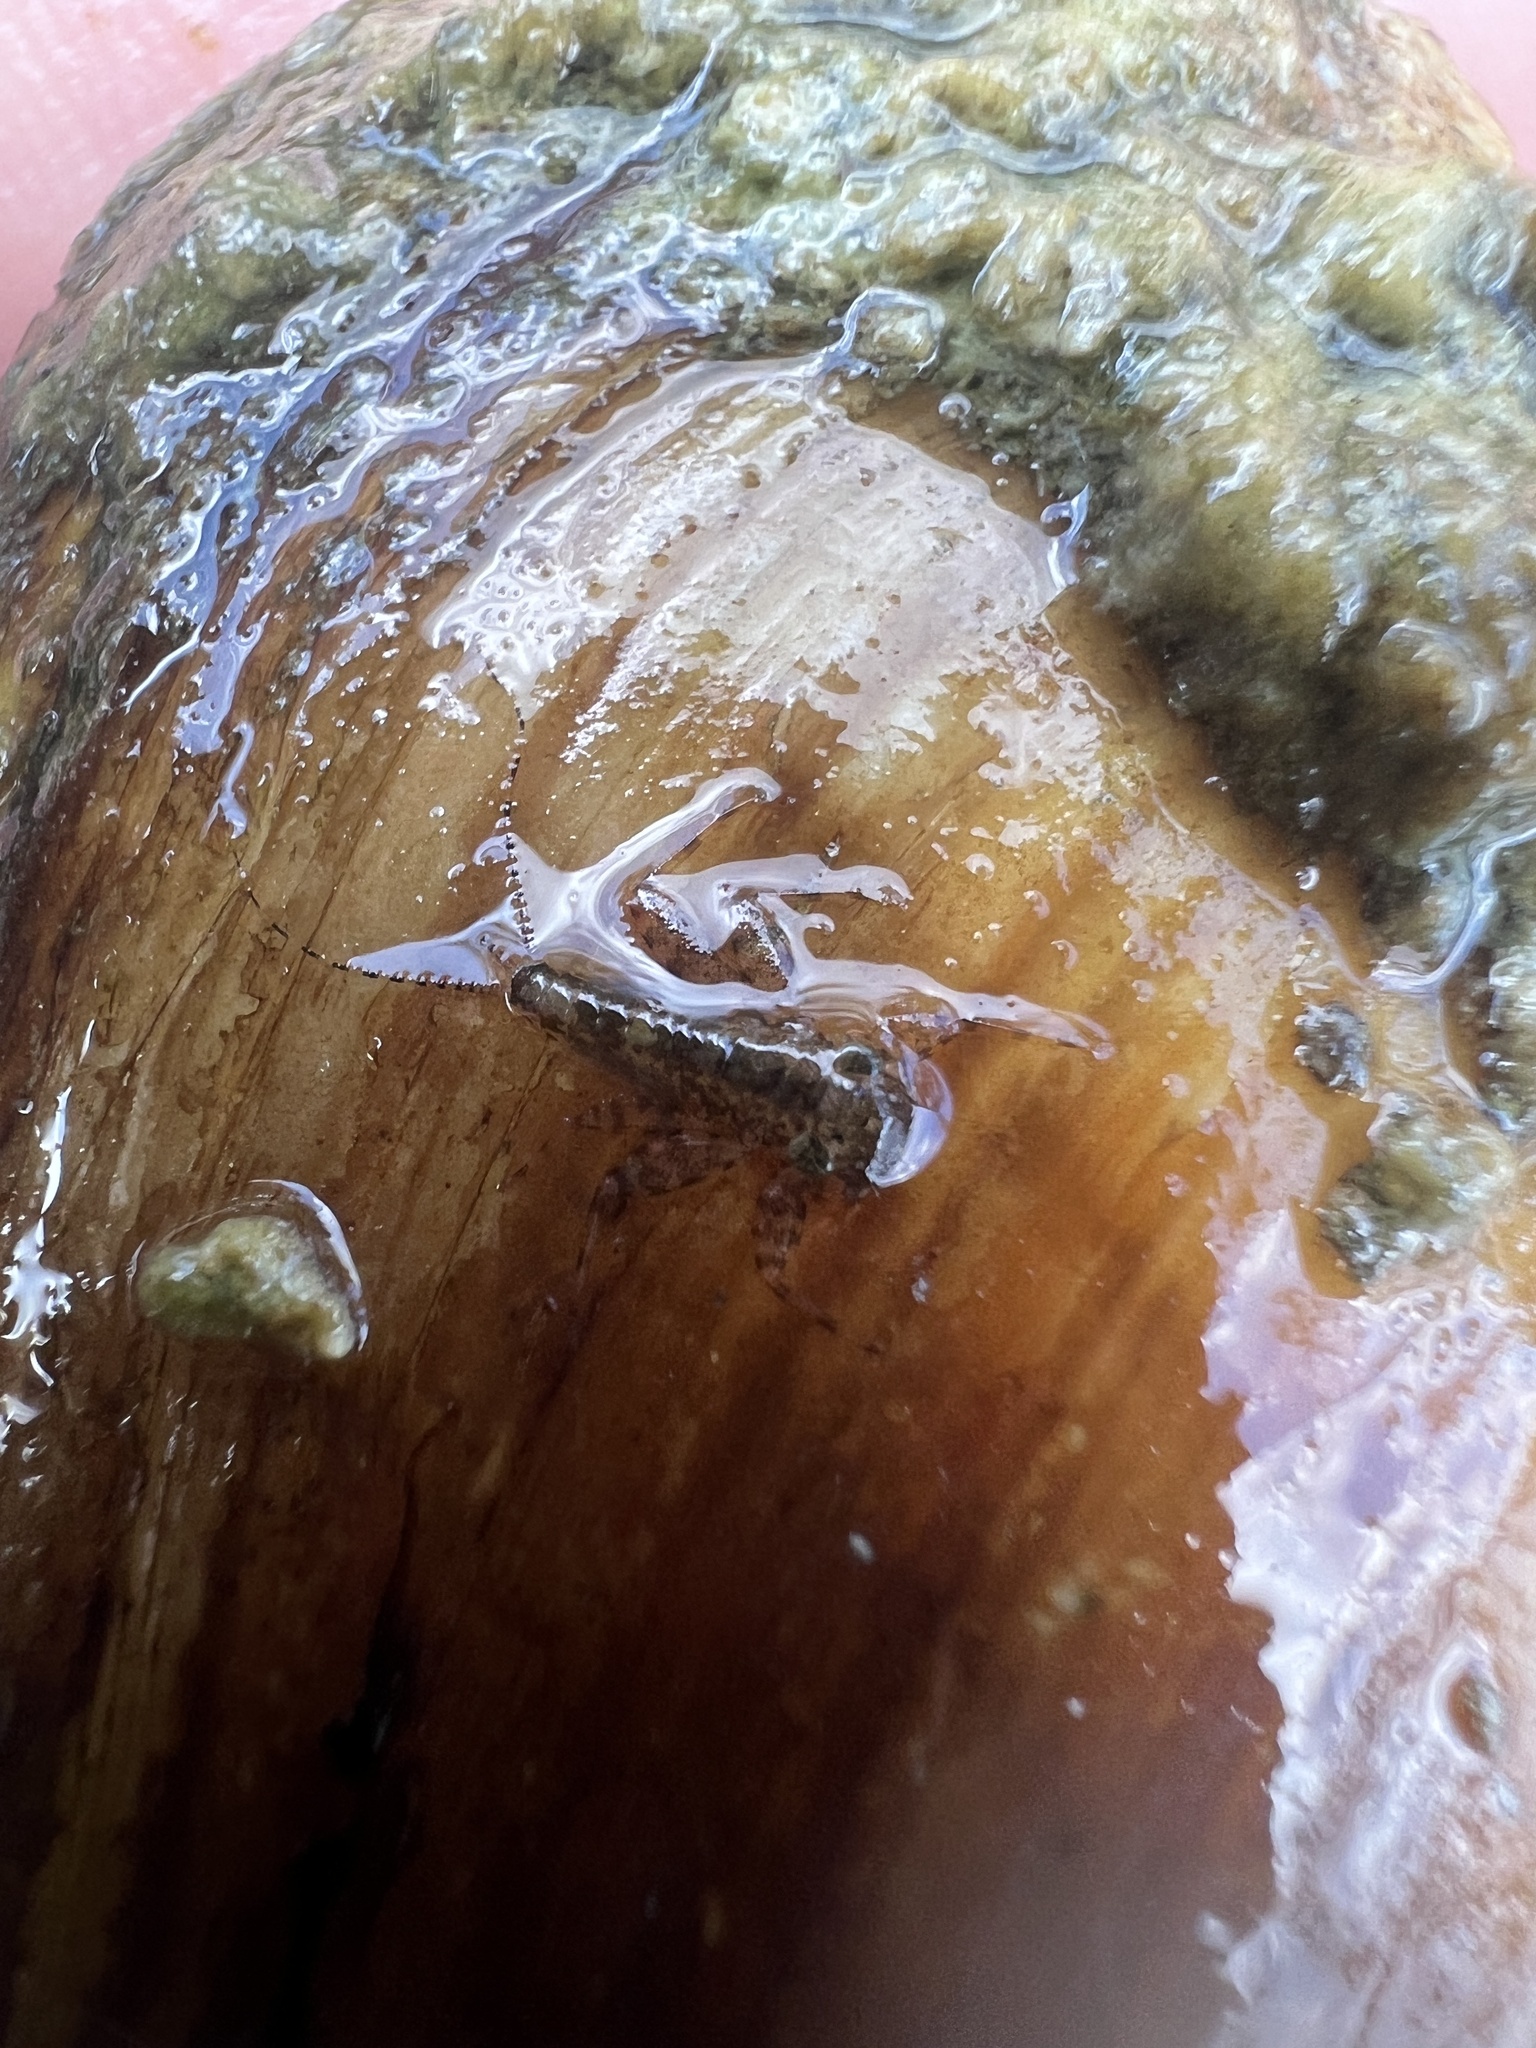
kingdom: Animalia
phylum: Arthropoda
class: Insecta
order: Ephemeroptera
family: Heptageniidae
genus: Stenonema
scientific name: Stenonema femoratum
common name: Dark cahill
